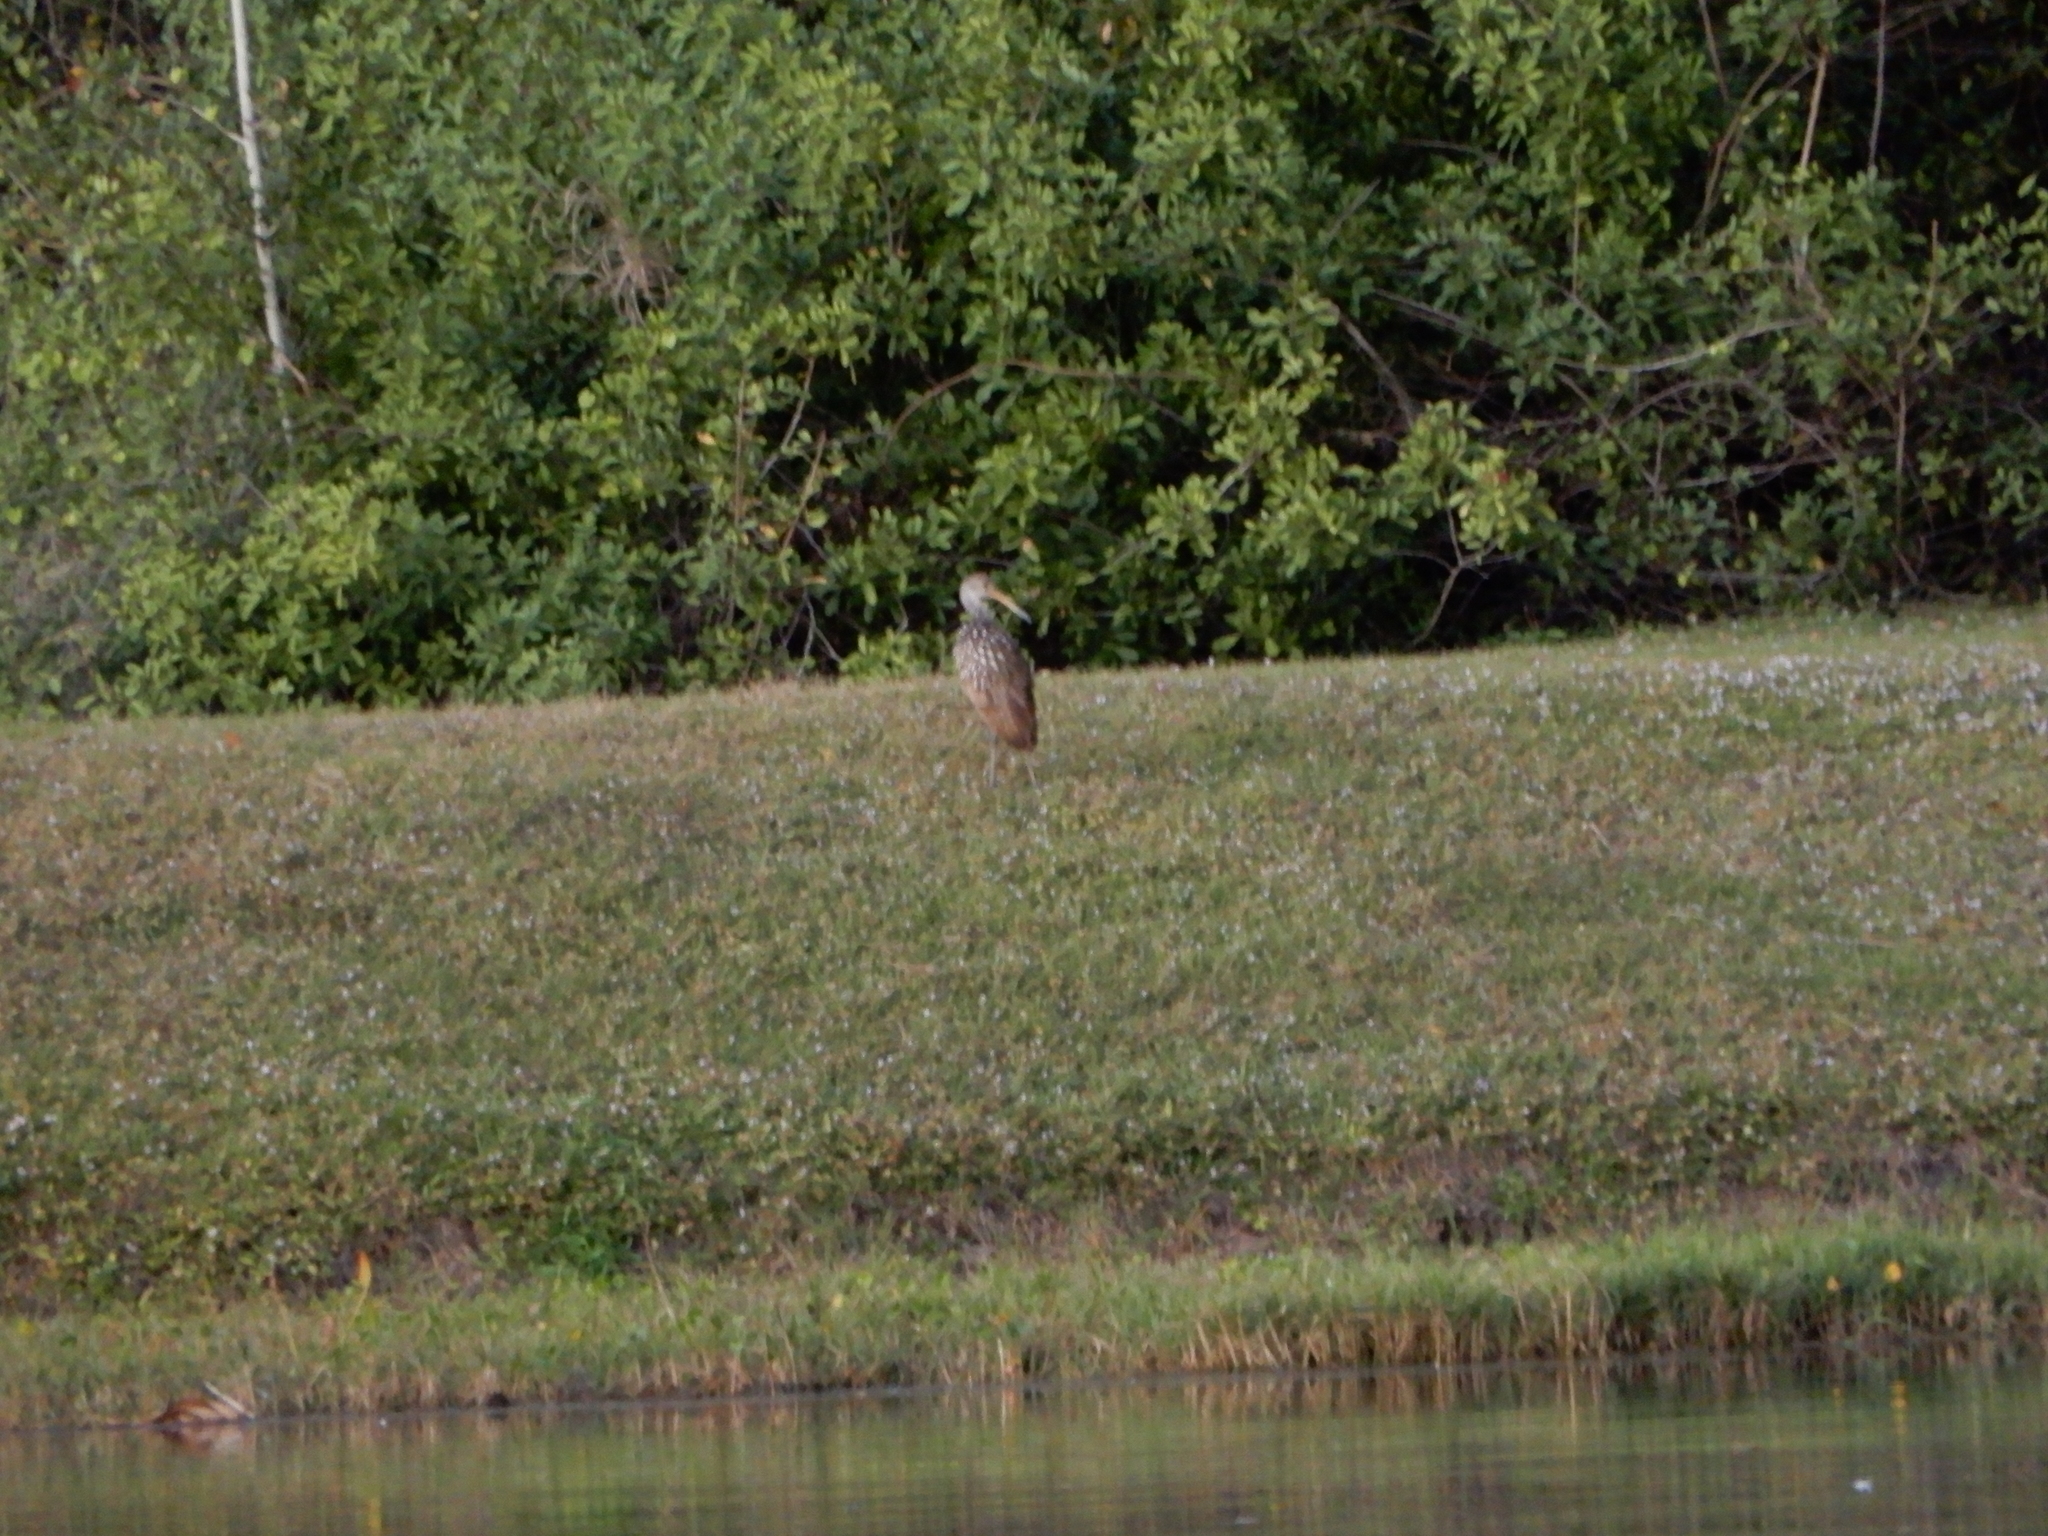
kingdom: Animalia
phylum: Chordata
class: Aves
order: Gruiformes
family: Aramidae
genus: Aramus
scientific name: Aramus guarauna
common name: Limpkin
